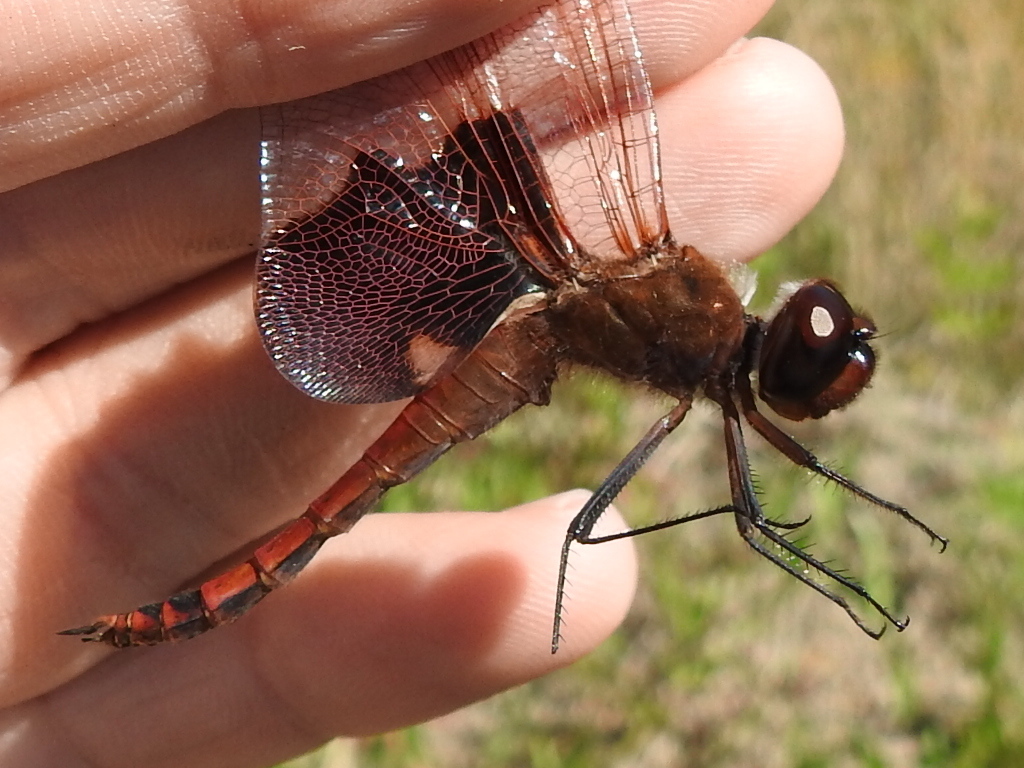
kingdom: Animalia
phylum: Arthropoda
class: Insecta
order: Odonata
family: Libellulidae
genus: Tramea
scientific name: Tramea carolina
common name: Carolina saddlebags
